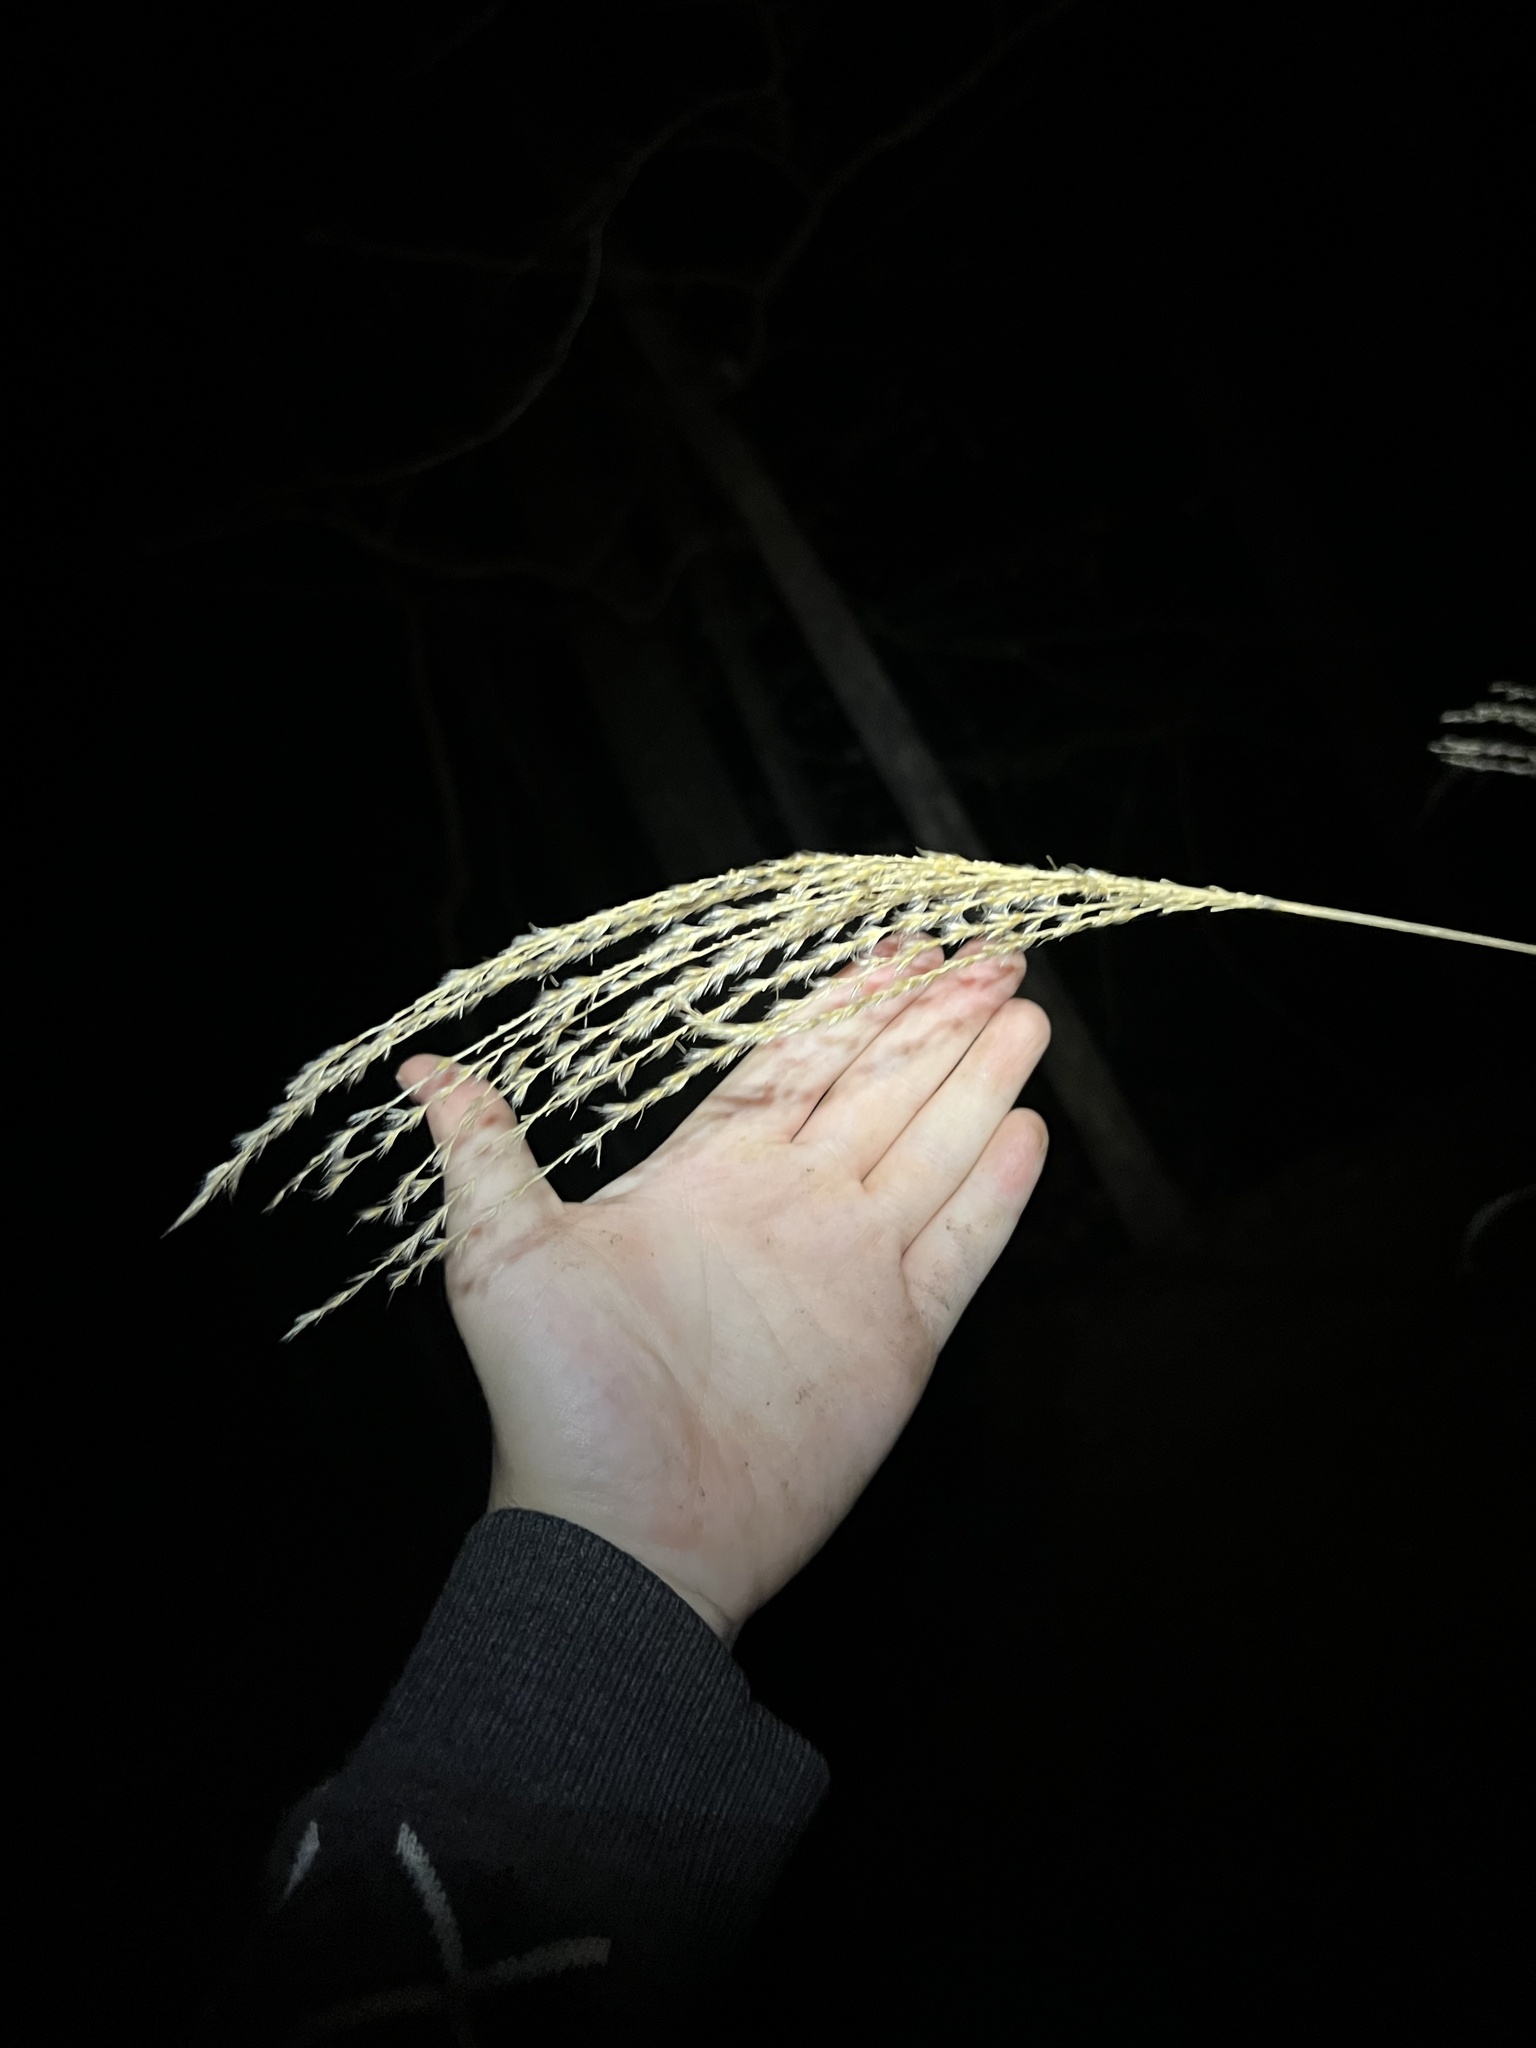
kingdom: Plantae
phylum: Tracheophyta
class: Liliopsida
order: Poales
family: Poaceae
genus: Miscanthus
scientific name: Miscanthus sinensis
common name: Chinese silvergrass
